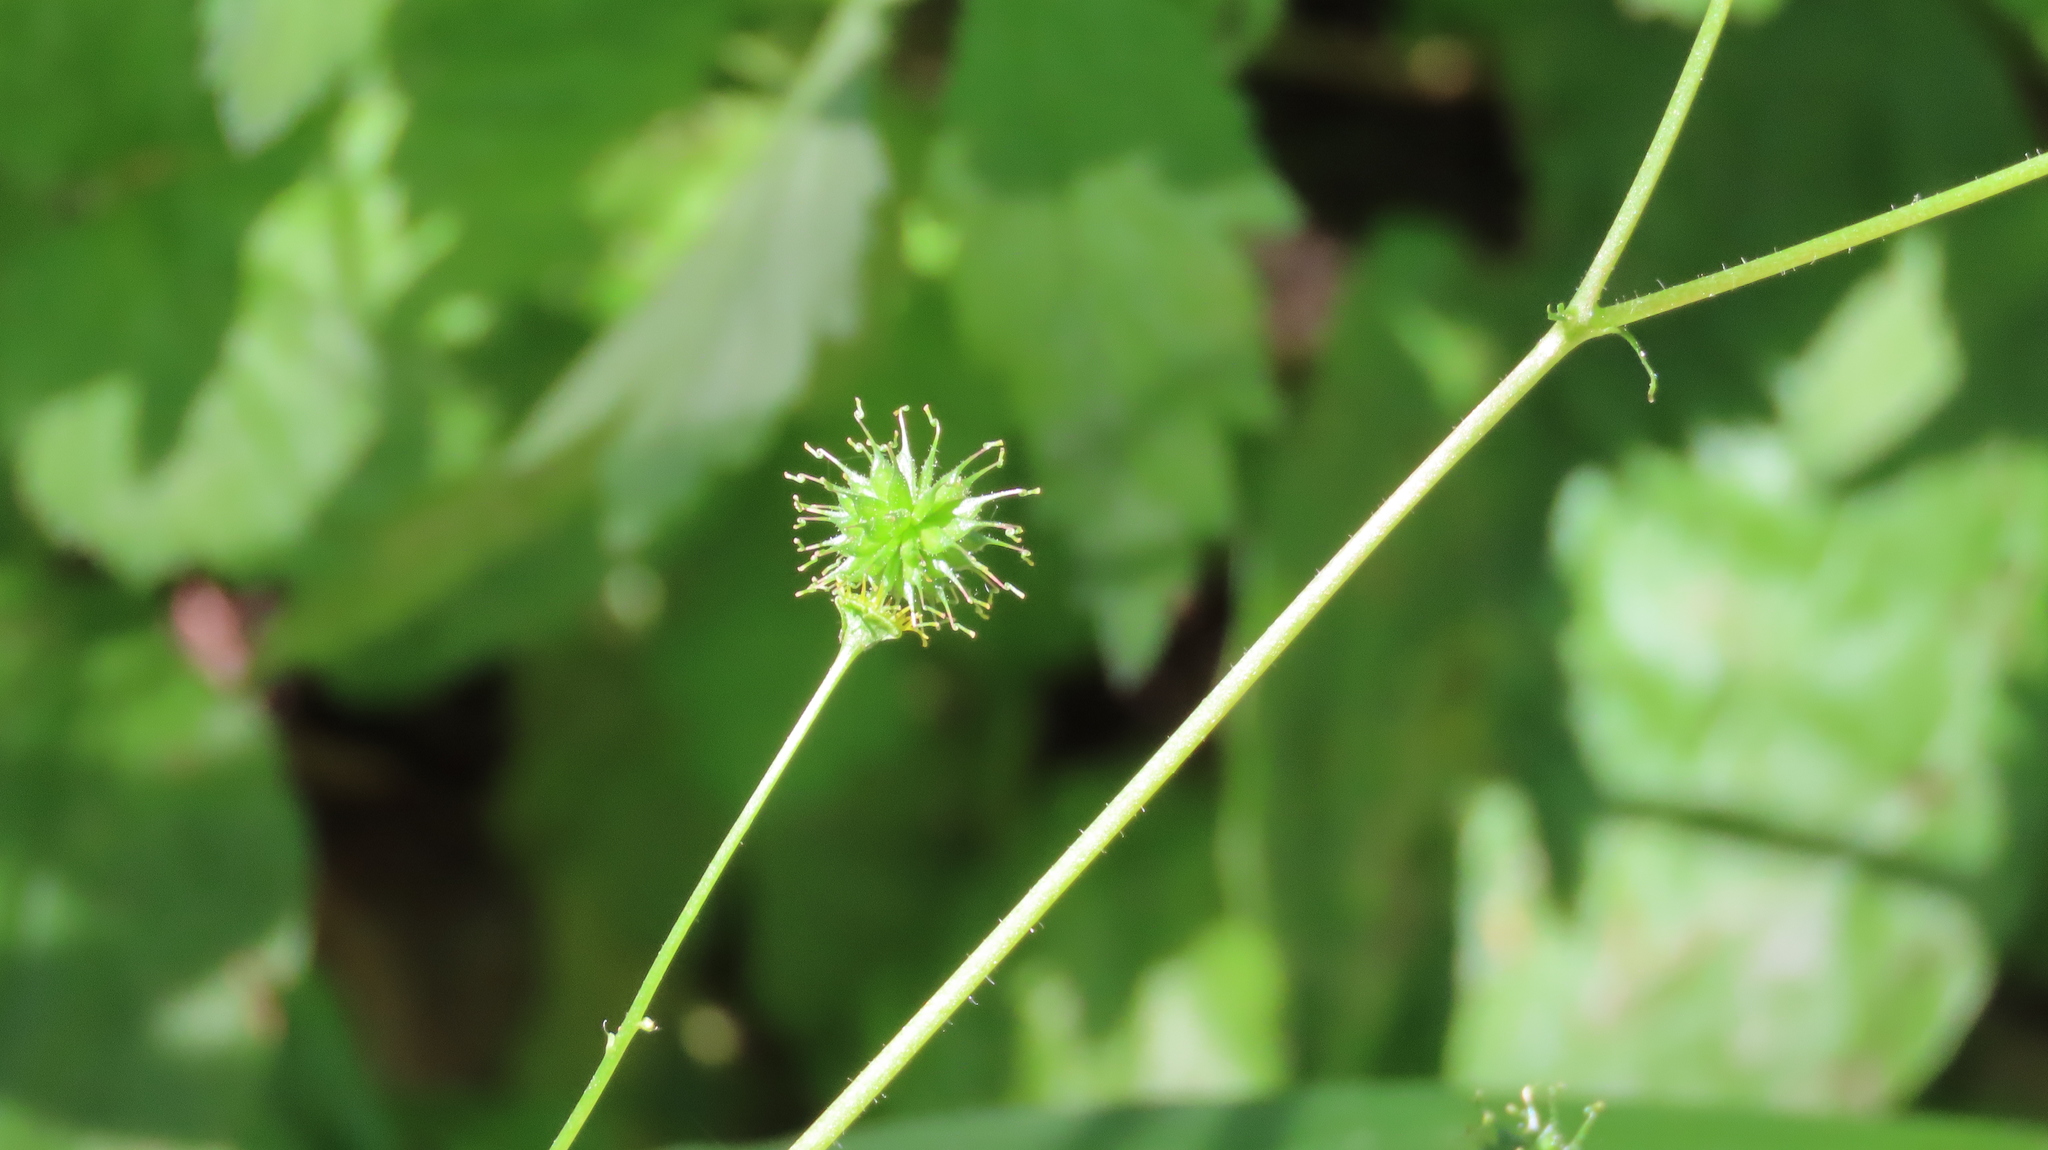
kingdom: Plantae
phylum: Tracheophyta
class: Magnoliopsida
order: Rosales
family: Rosaceae
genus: Geum
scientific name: Geum vernum
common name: Spring avens
